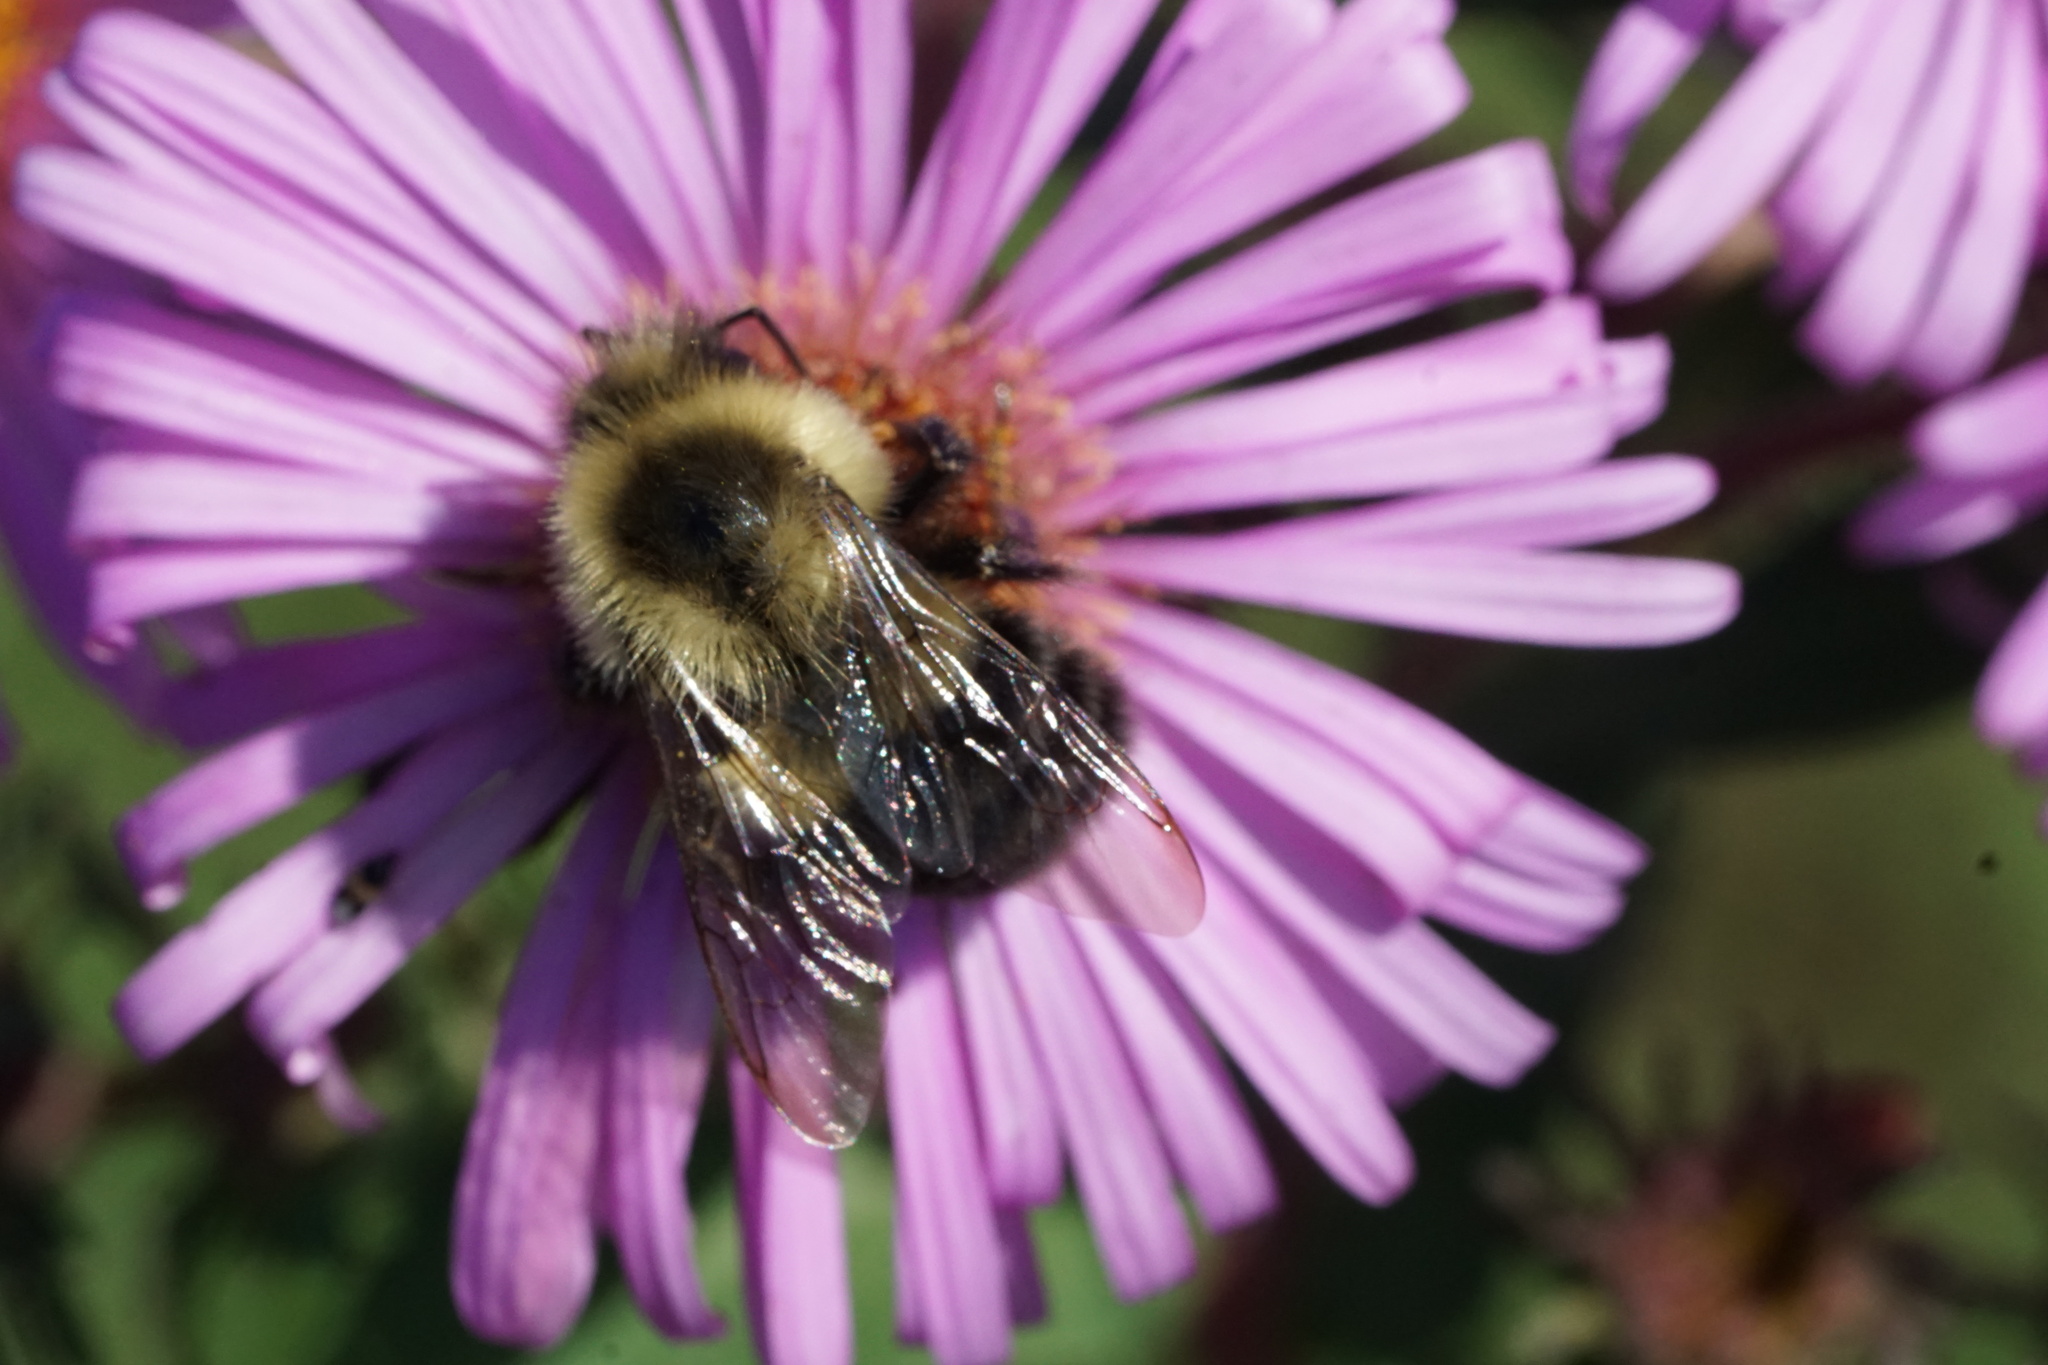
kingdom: Animalia
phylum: Arthropoda
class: Insecta
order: Hymenoptera
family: Apidae
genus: Bombus
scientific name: Bombus impatiens
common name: Common eastern bumble bee
